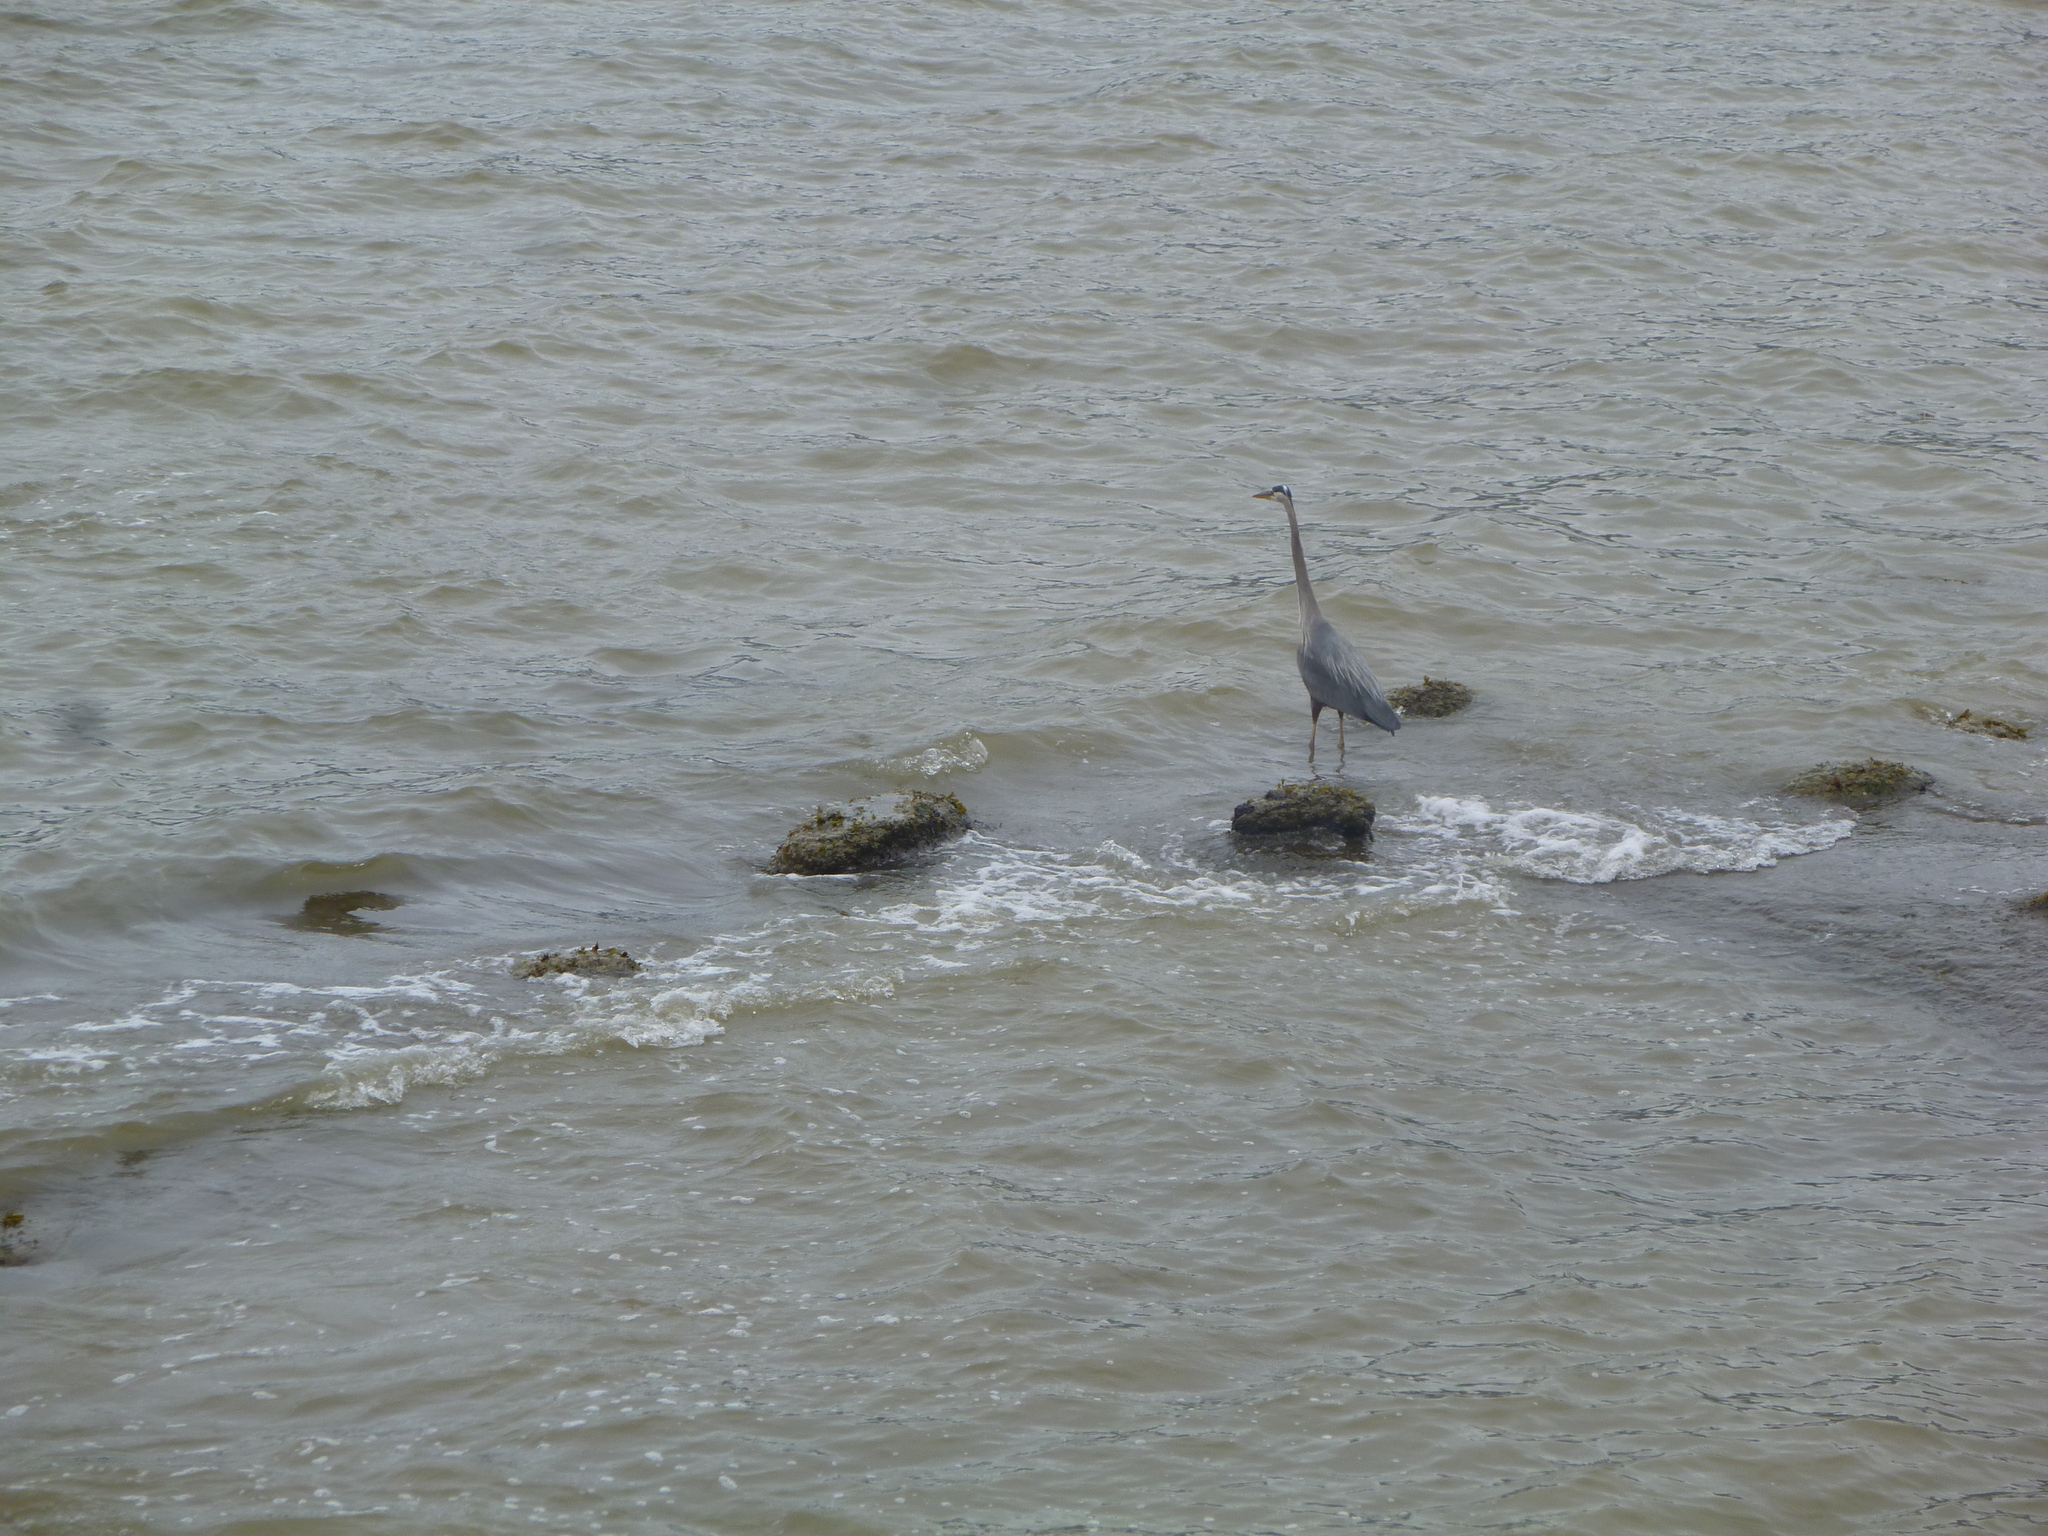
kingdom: Animalia
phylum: Chordata
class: Aves
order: Pelecaniformes
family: Ardeidae
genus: Ardea
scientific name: Ardea herodias
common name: Great blue heron
